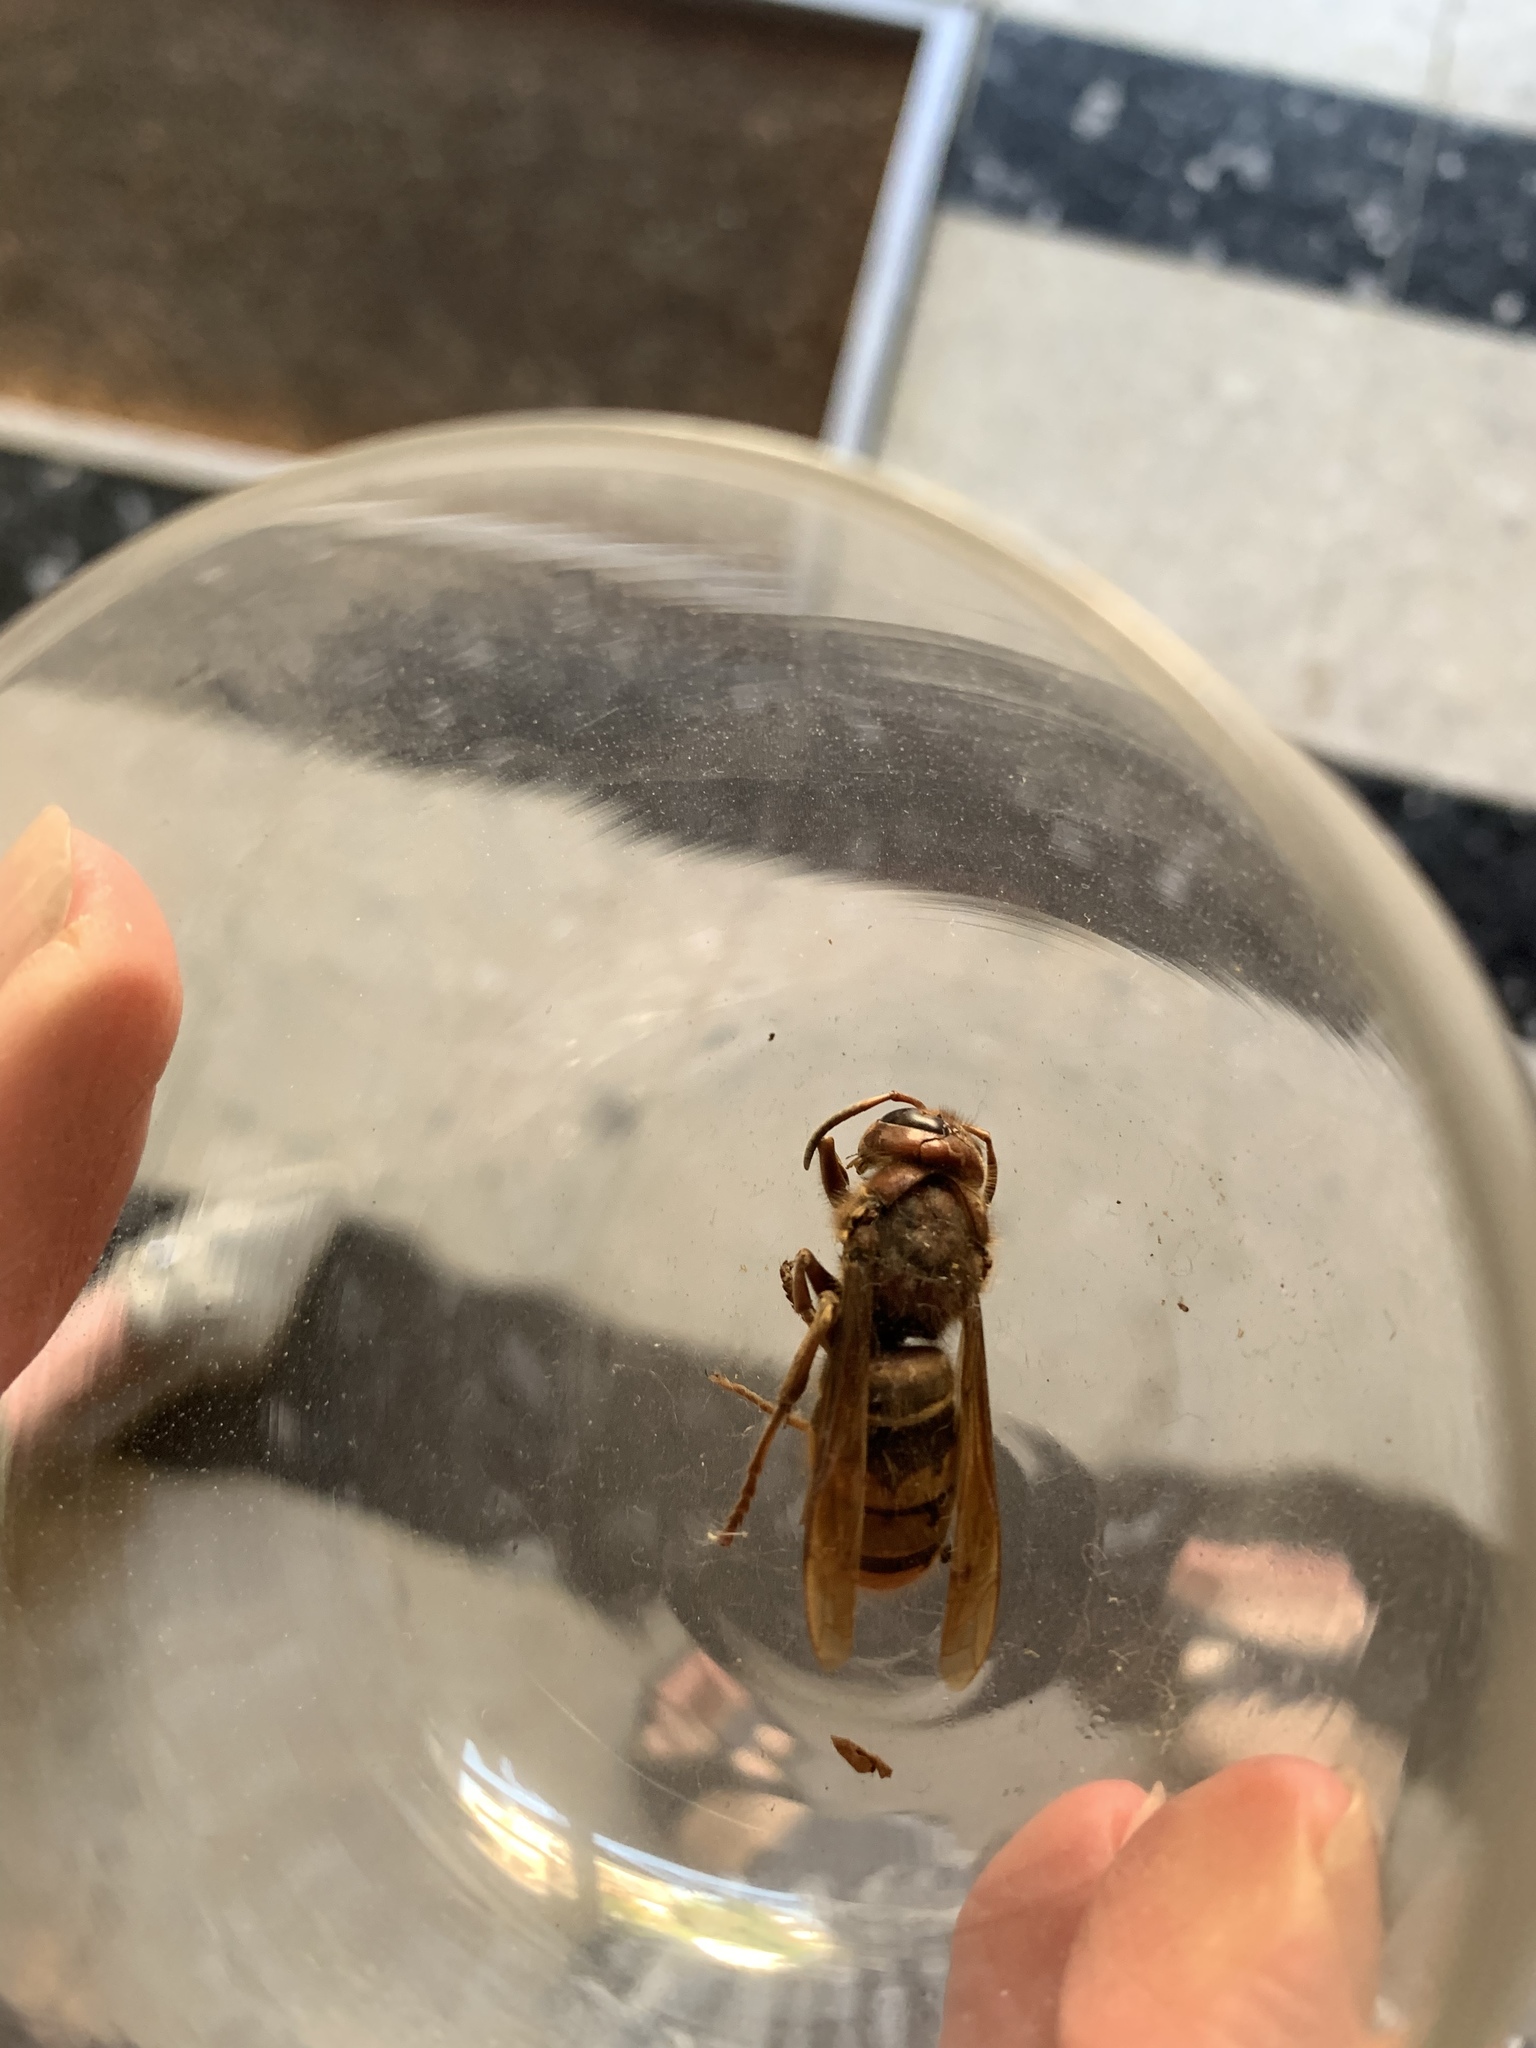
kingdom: Animalia
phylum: Arthropoda
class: Insecta
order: Hymenoptera
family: Vespidae
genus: Vespa
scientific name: Vespa crabro
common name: Hornet
